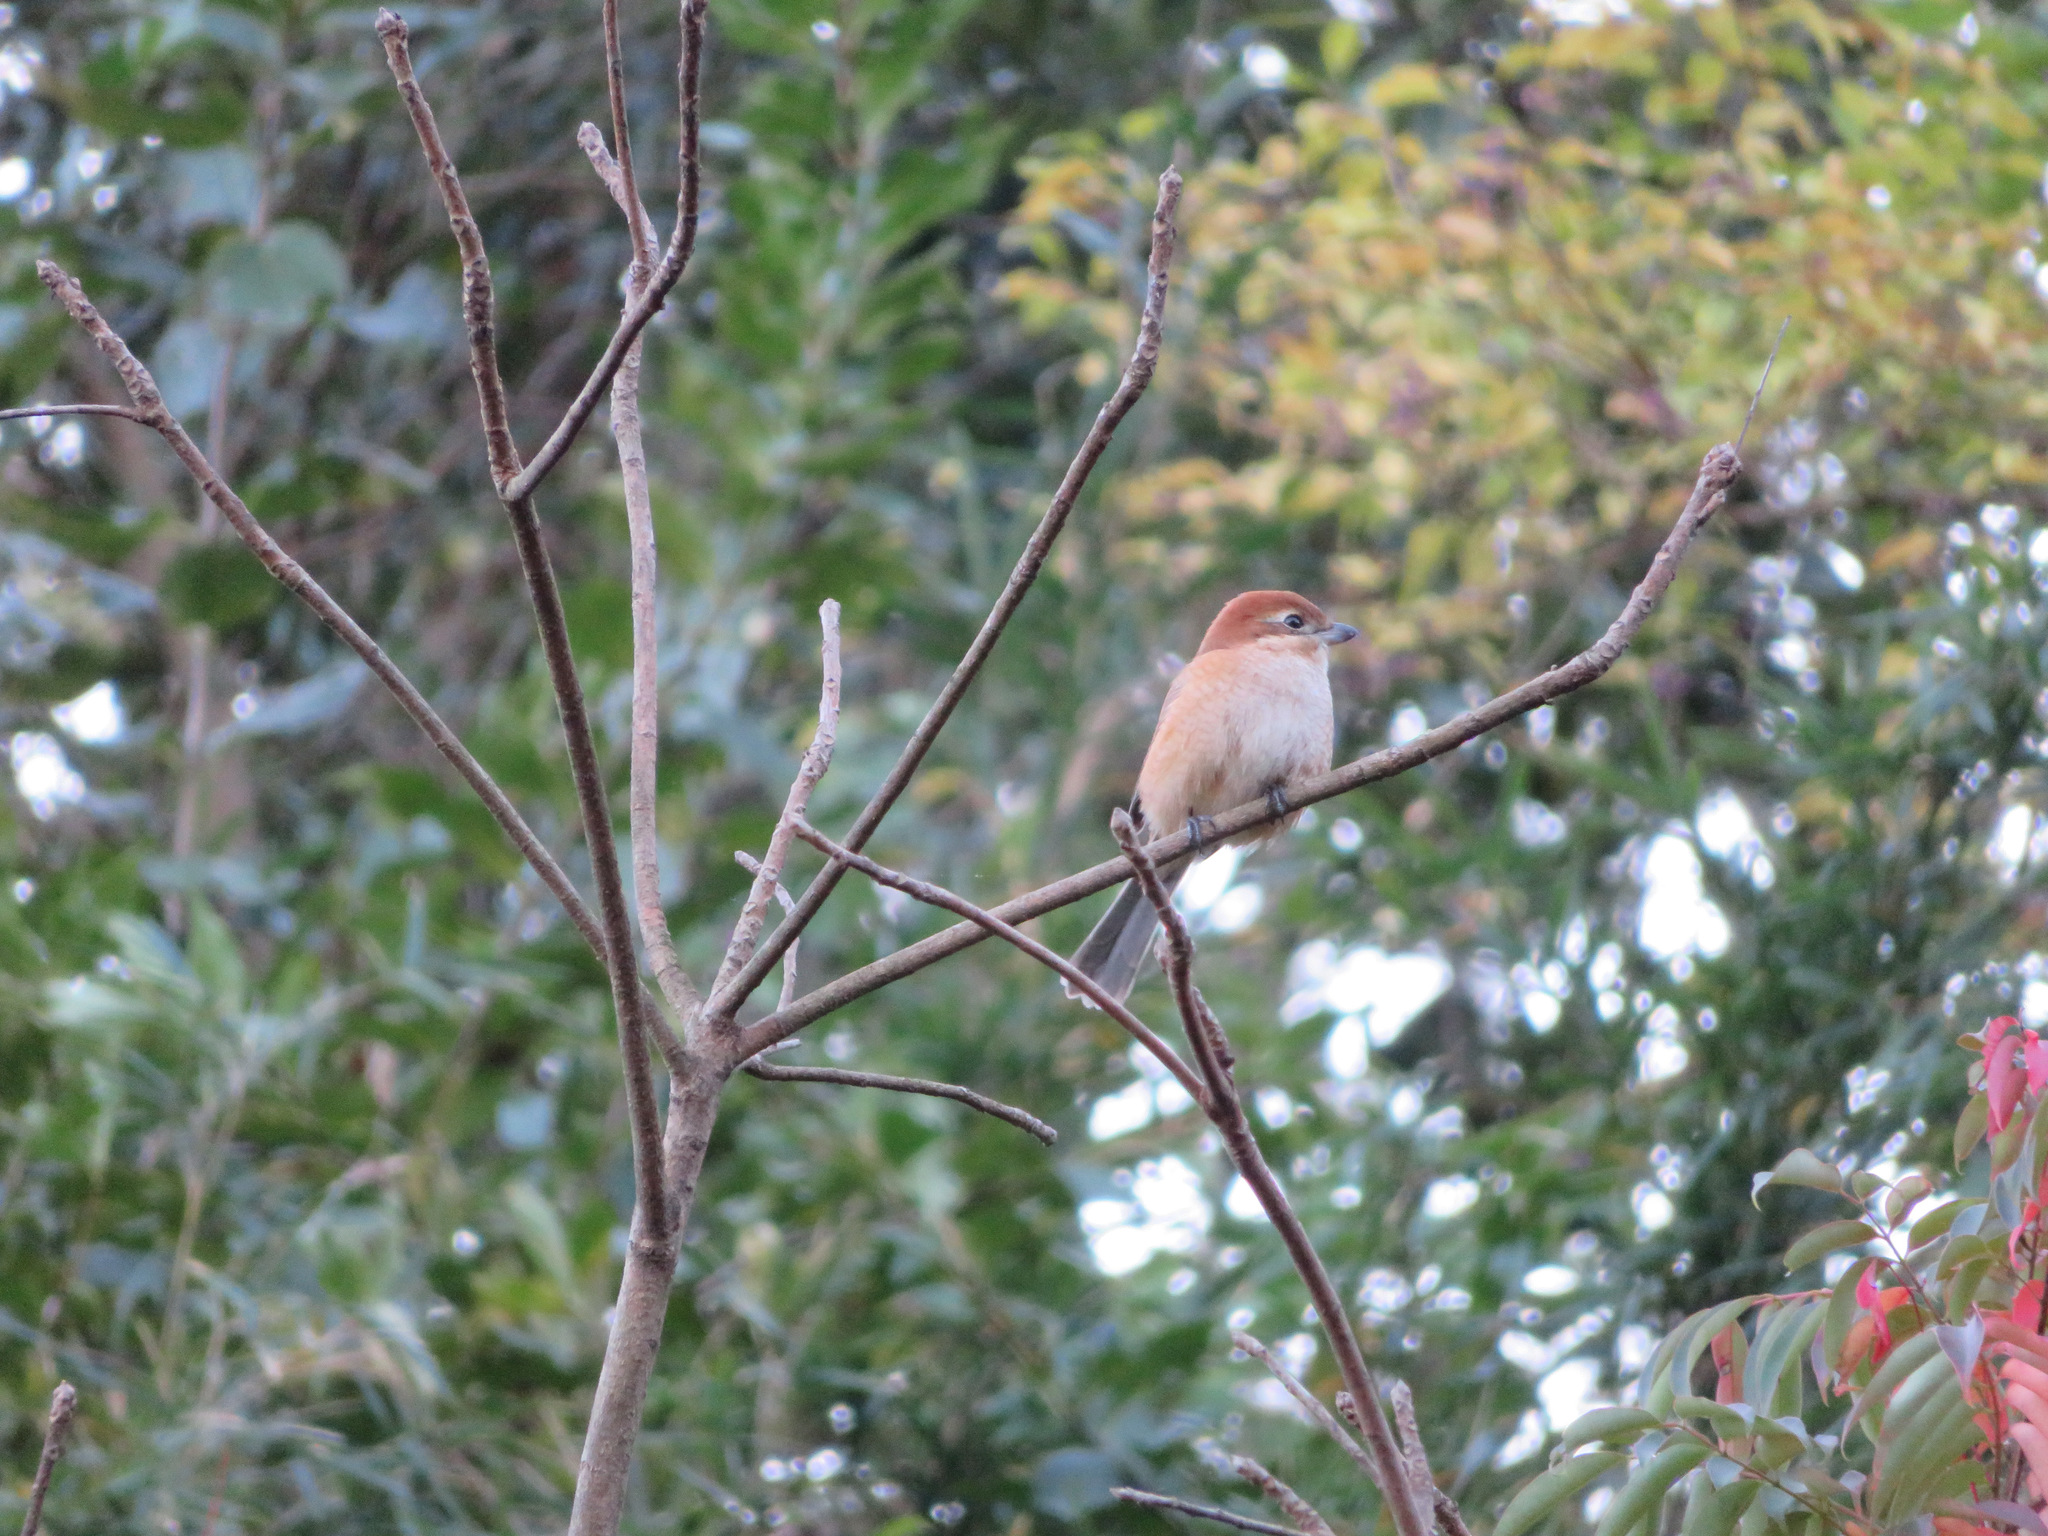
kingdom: Animalia
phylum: Chordata
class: Aves
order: Passeriformes
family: Laniidae
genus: Lanius
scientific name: Lanius bucephalus
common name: Bull-headed shrike
